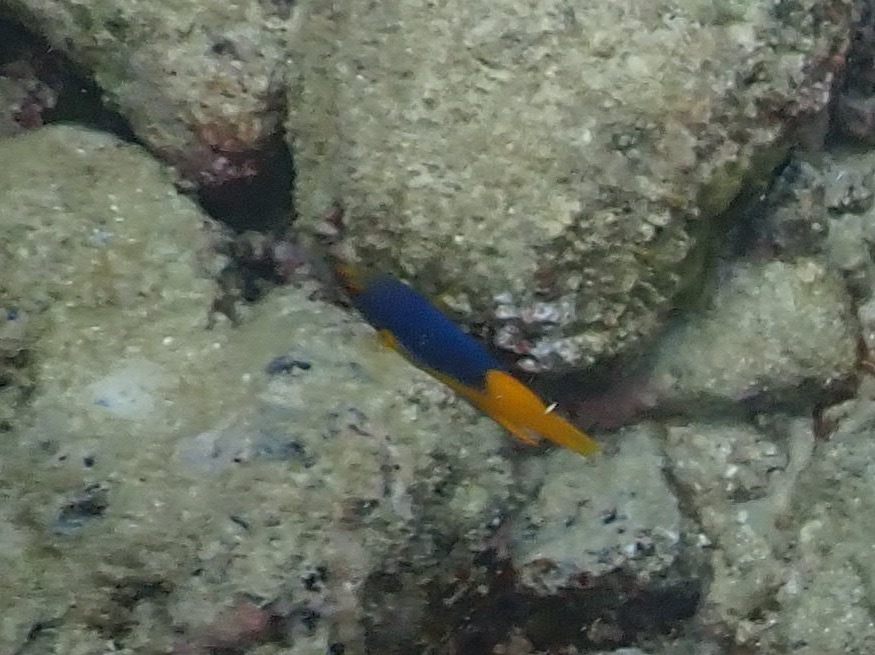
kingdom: Animalia
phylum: Chordata
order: Perciformes
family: Labridae
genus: Bodianus
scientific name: Bodianus rufus
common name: Spanish hogfish
